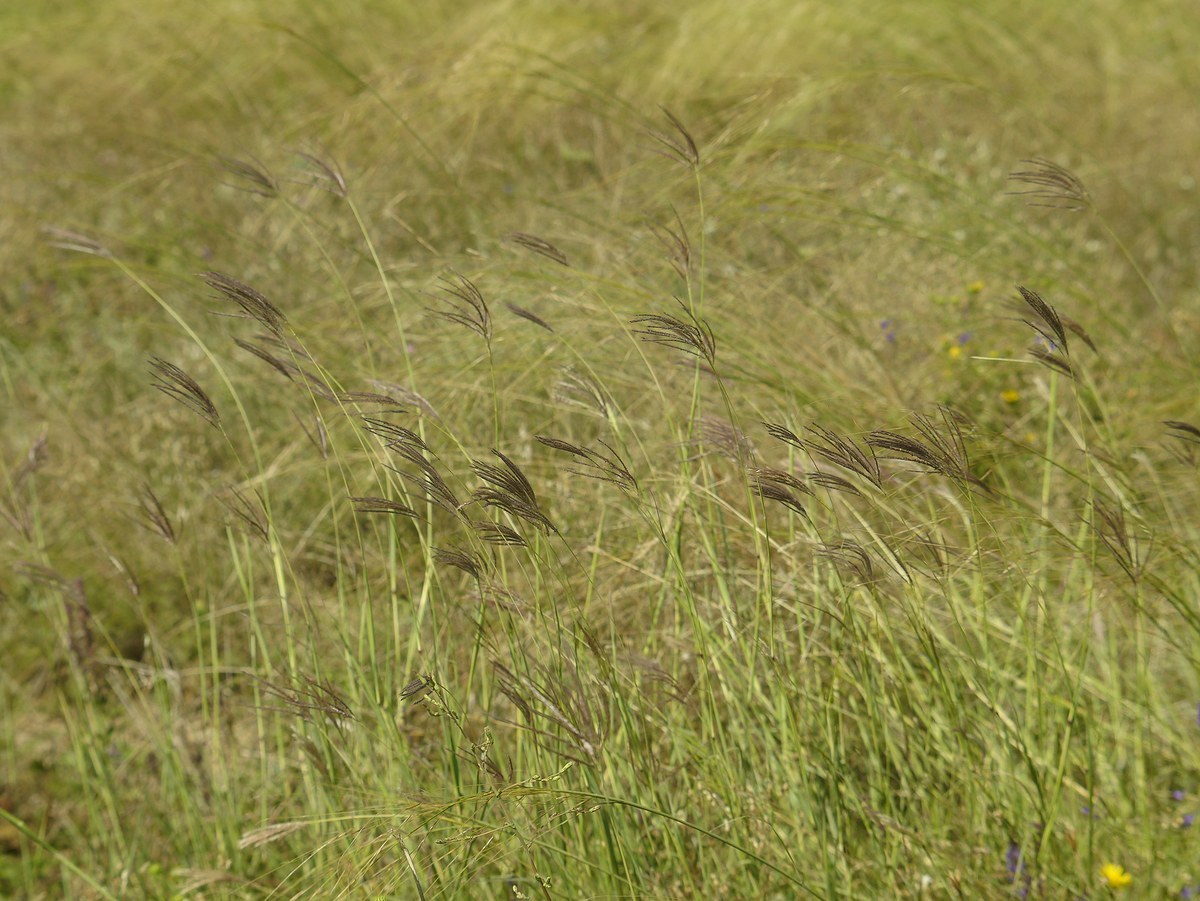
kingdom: Plantae
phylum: Tracheophyta
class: Liliopsida
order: Poales
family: Poaceae
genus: Bothriochloa
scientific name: Bothriochloa ischaemum
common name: Yellow bluestem
